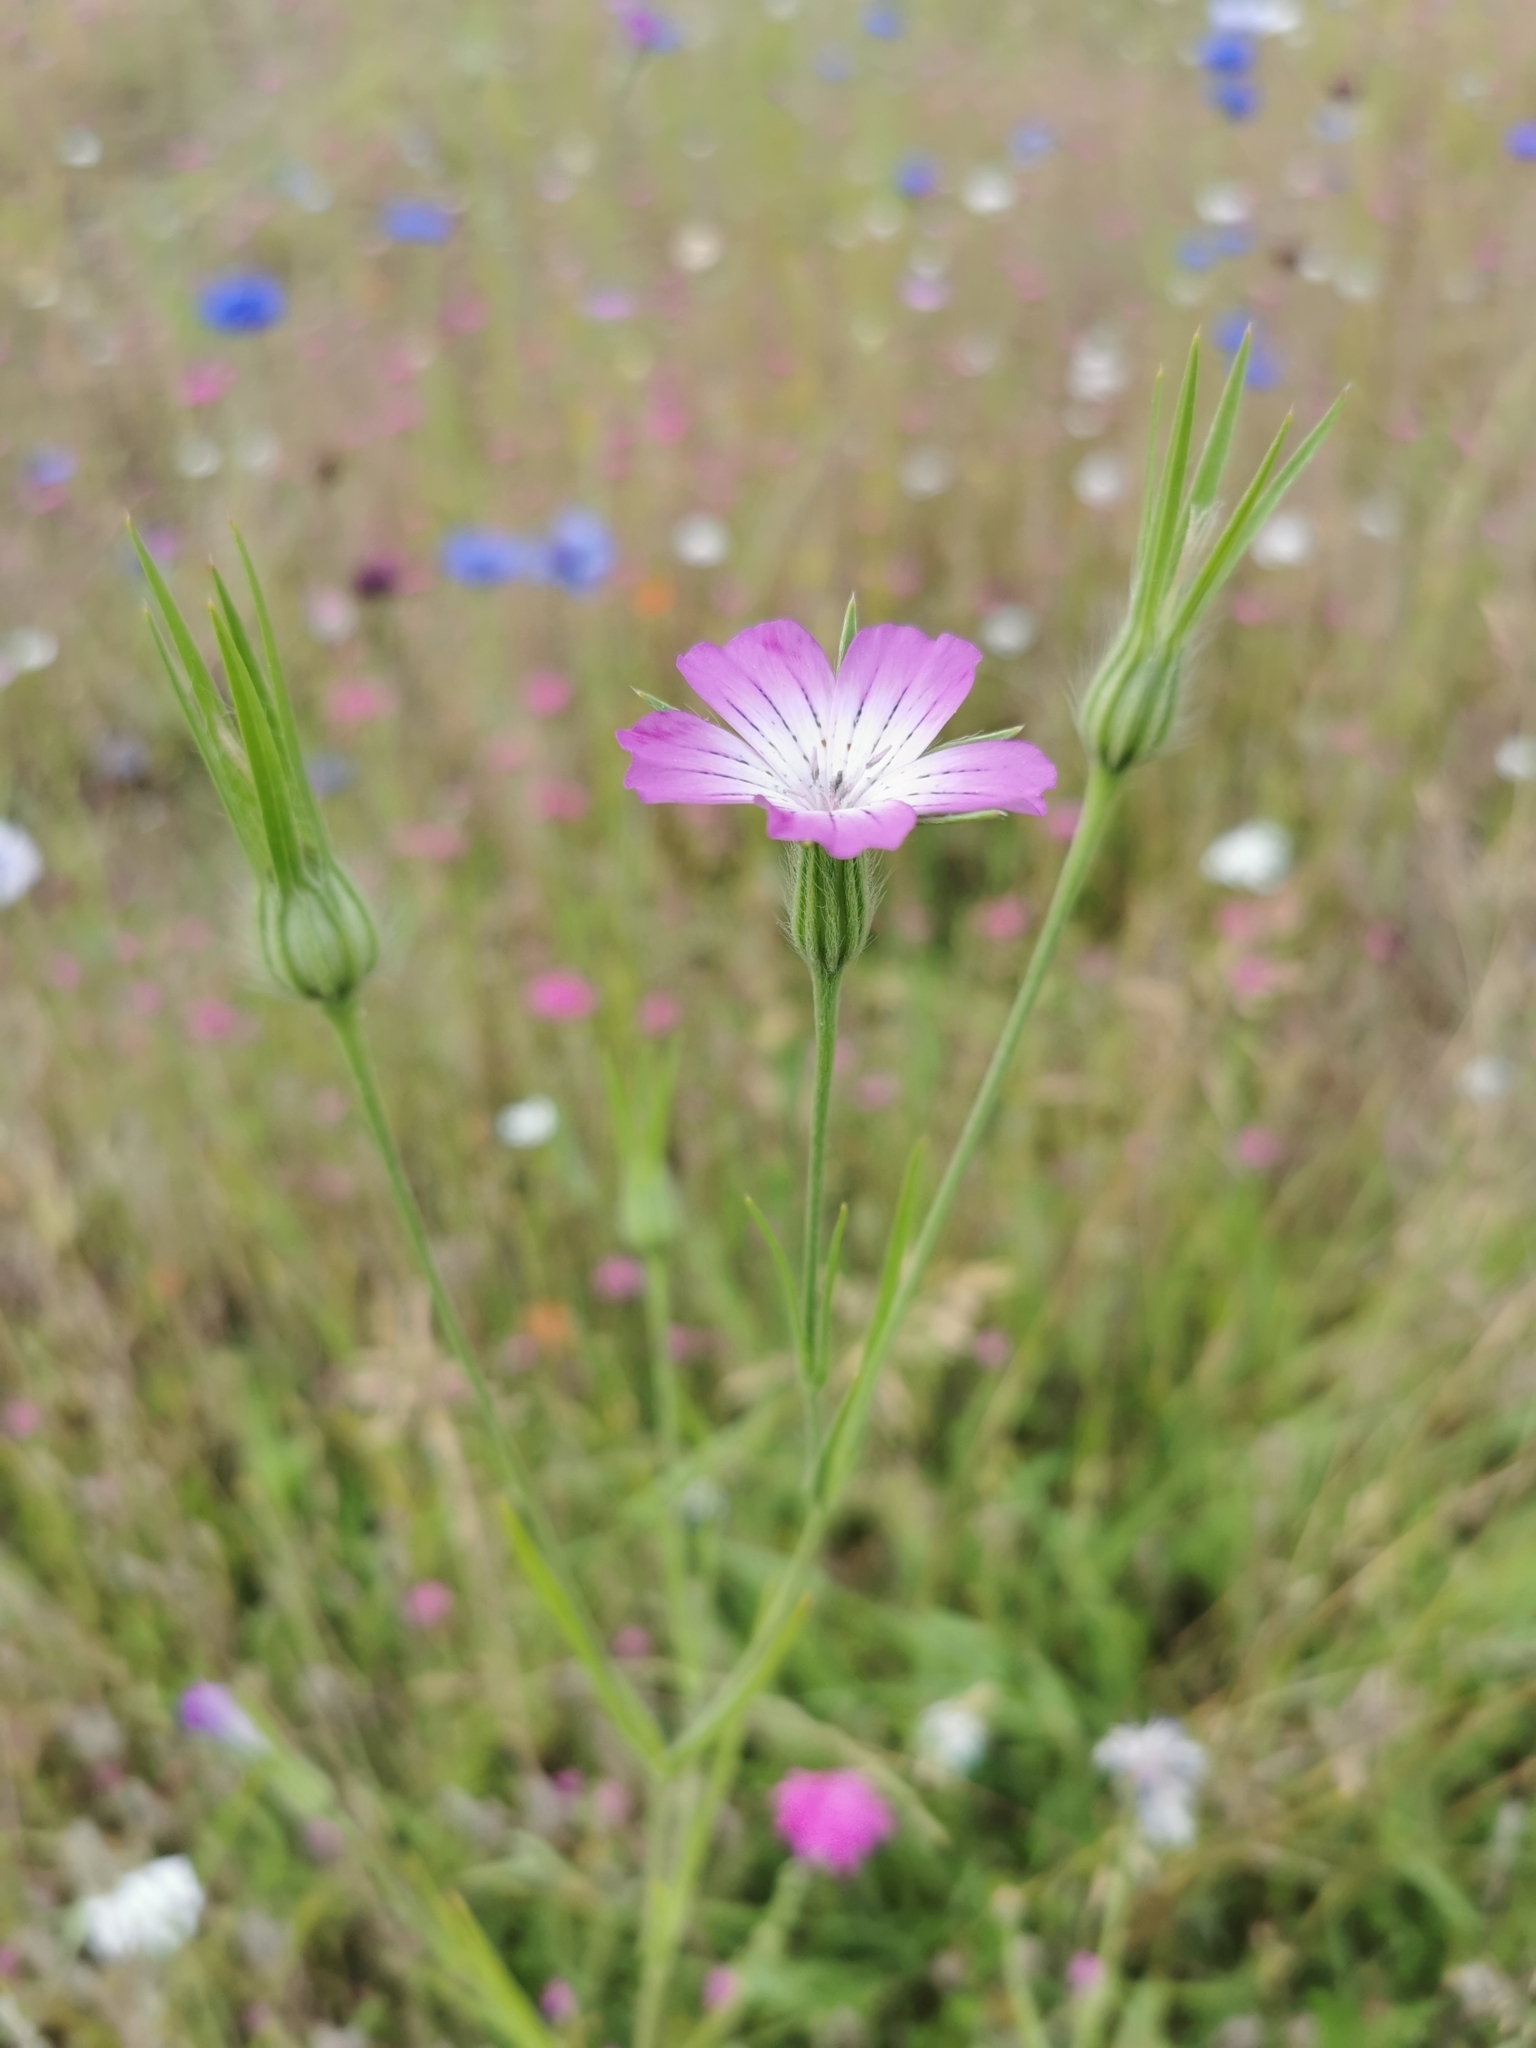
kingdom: Plantae
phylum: Tracheophyta
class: Magnoliopsida
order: Caryophyllales
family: Caryophyllaceae
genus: Agrostemma
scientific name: Agrostemma githago
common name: Common corncockle
